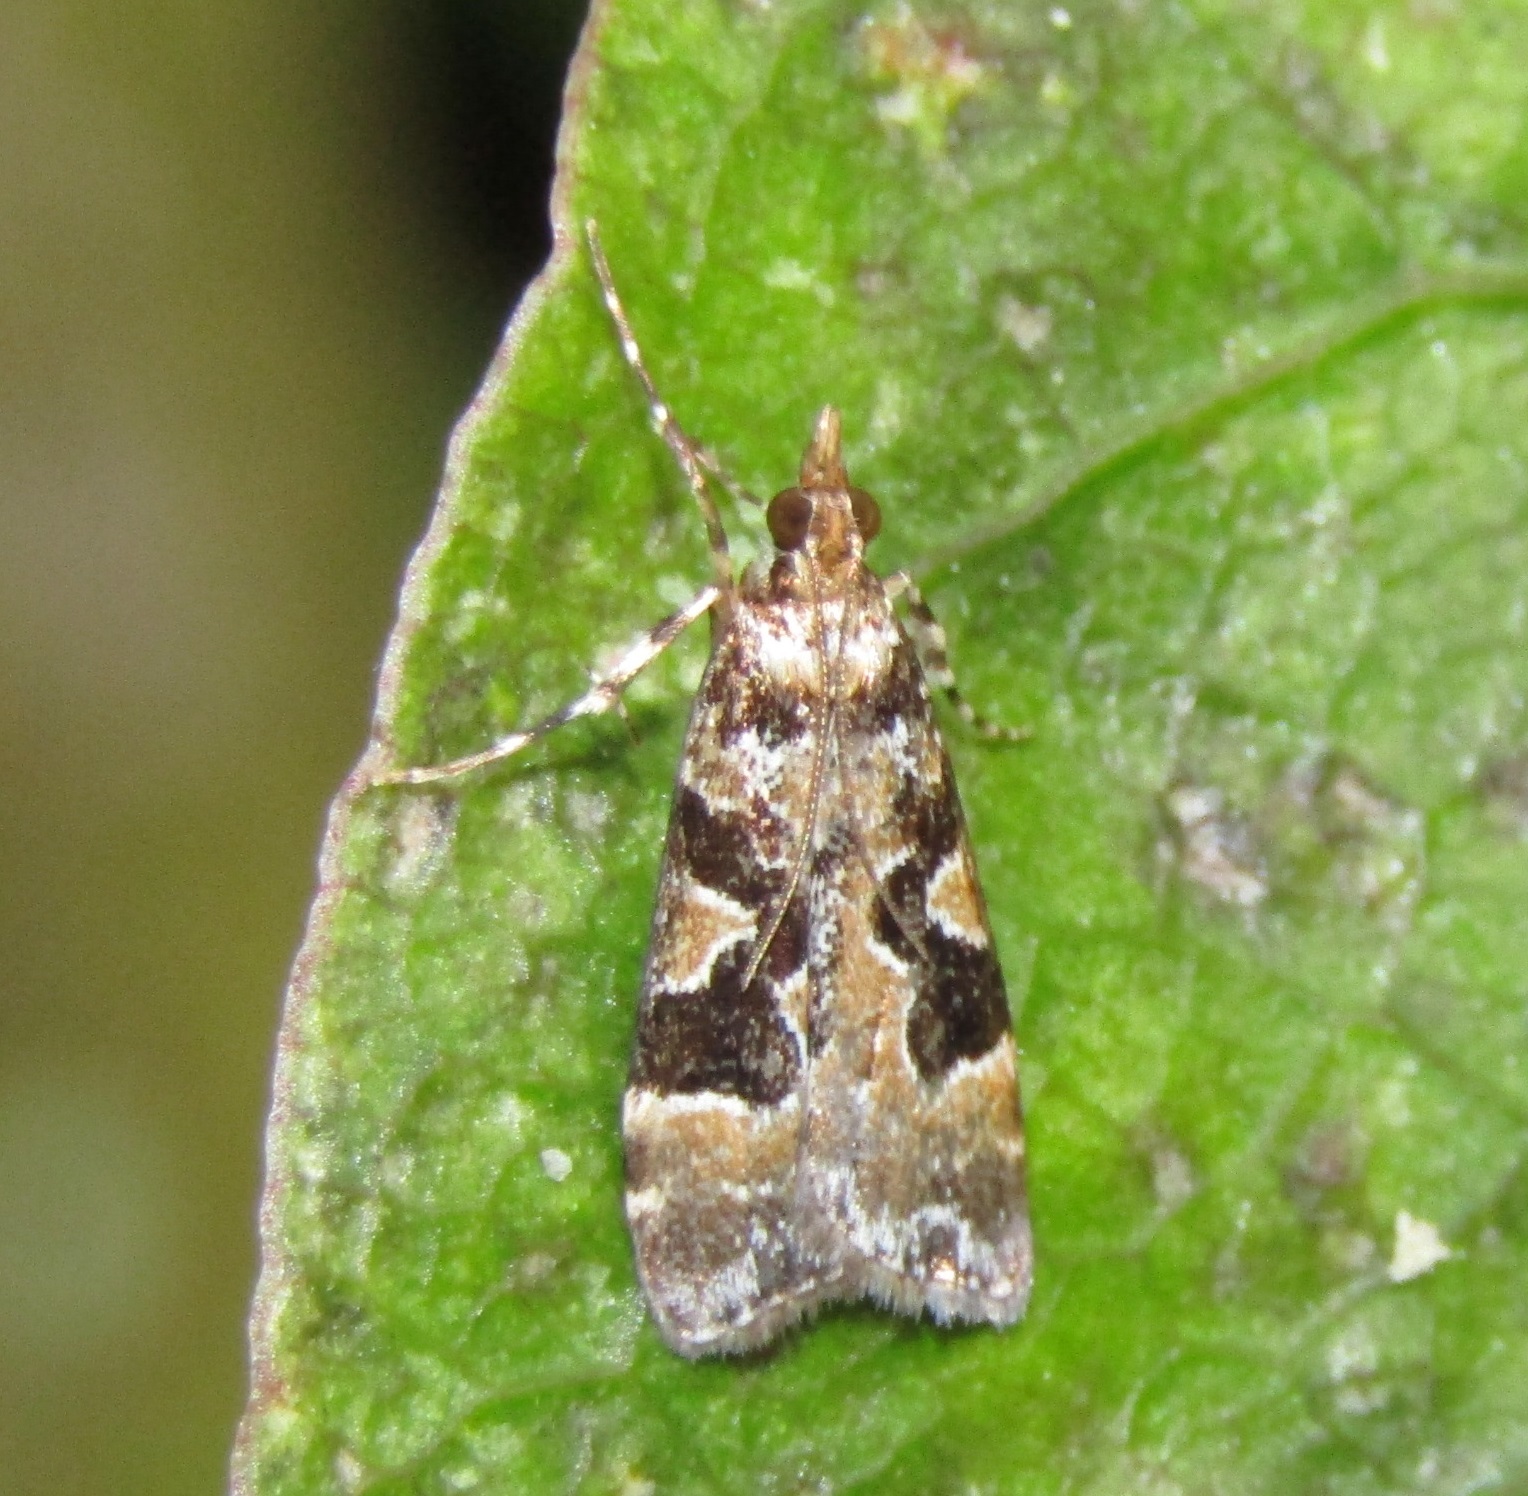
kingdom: Animalia
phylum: Arthropoda
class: Insecta
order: Lepidoptera
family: Crambidae
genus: Scoparia
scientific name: Scoparia ustimacula
